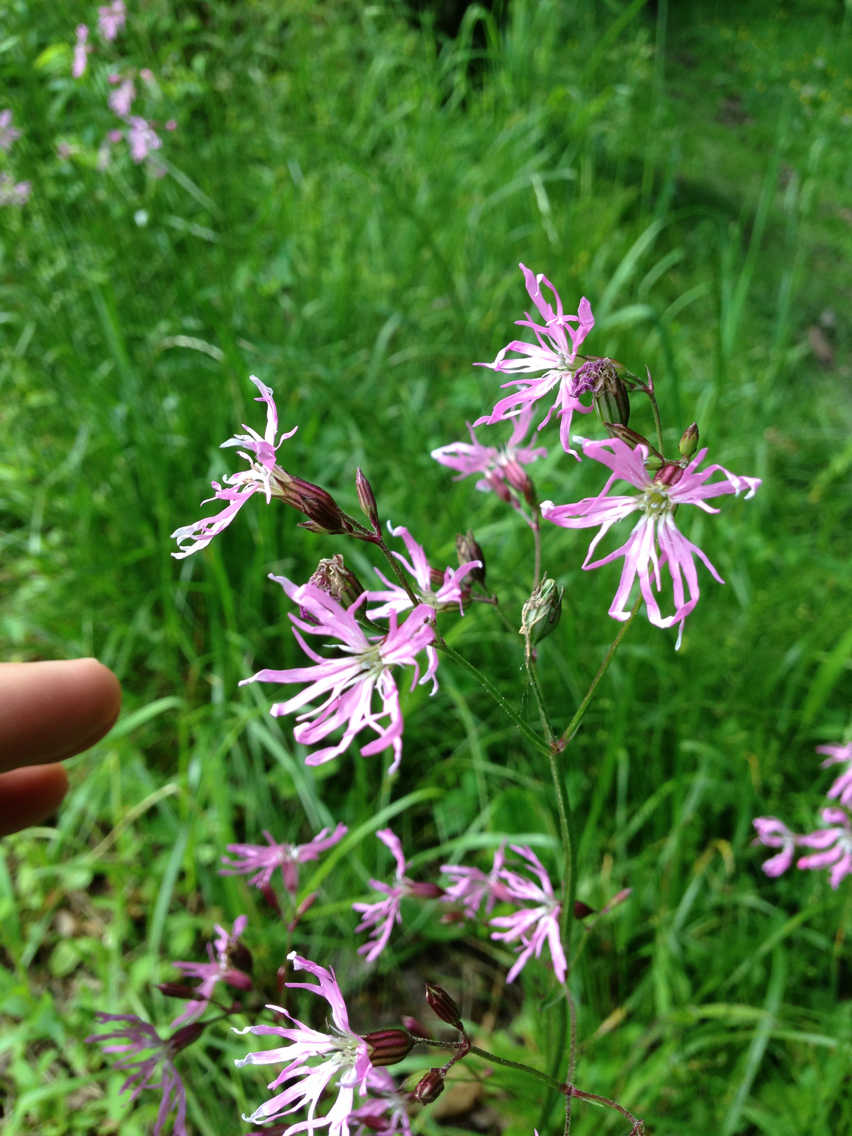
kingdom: Plantae
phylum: Tracheophyta
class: Magnoliopsida
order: Caryophyllales
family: Caryophyllaceae
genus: Silene
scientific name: Silene flos-cuculi
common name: Ragged-robin
